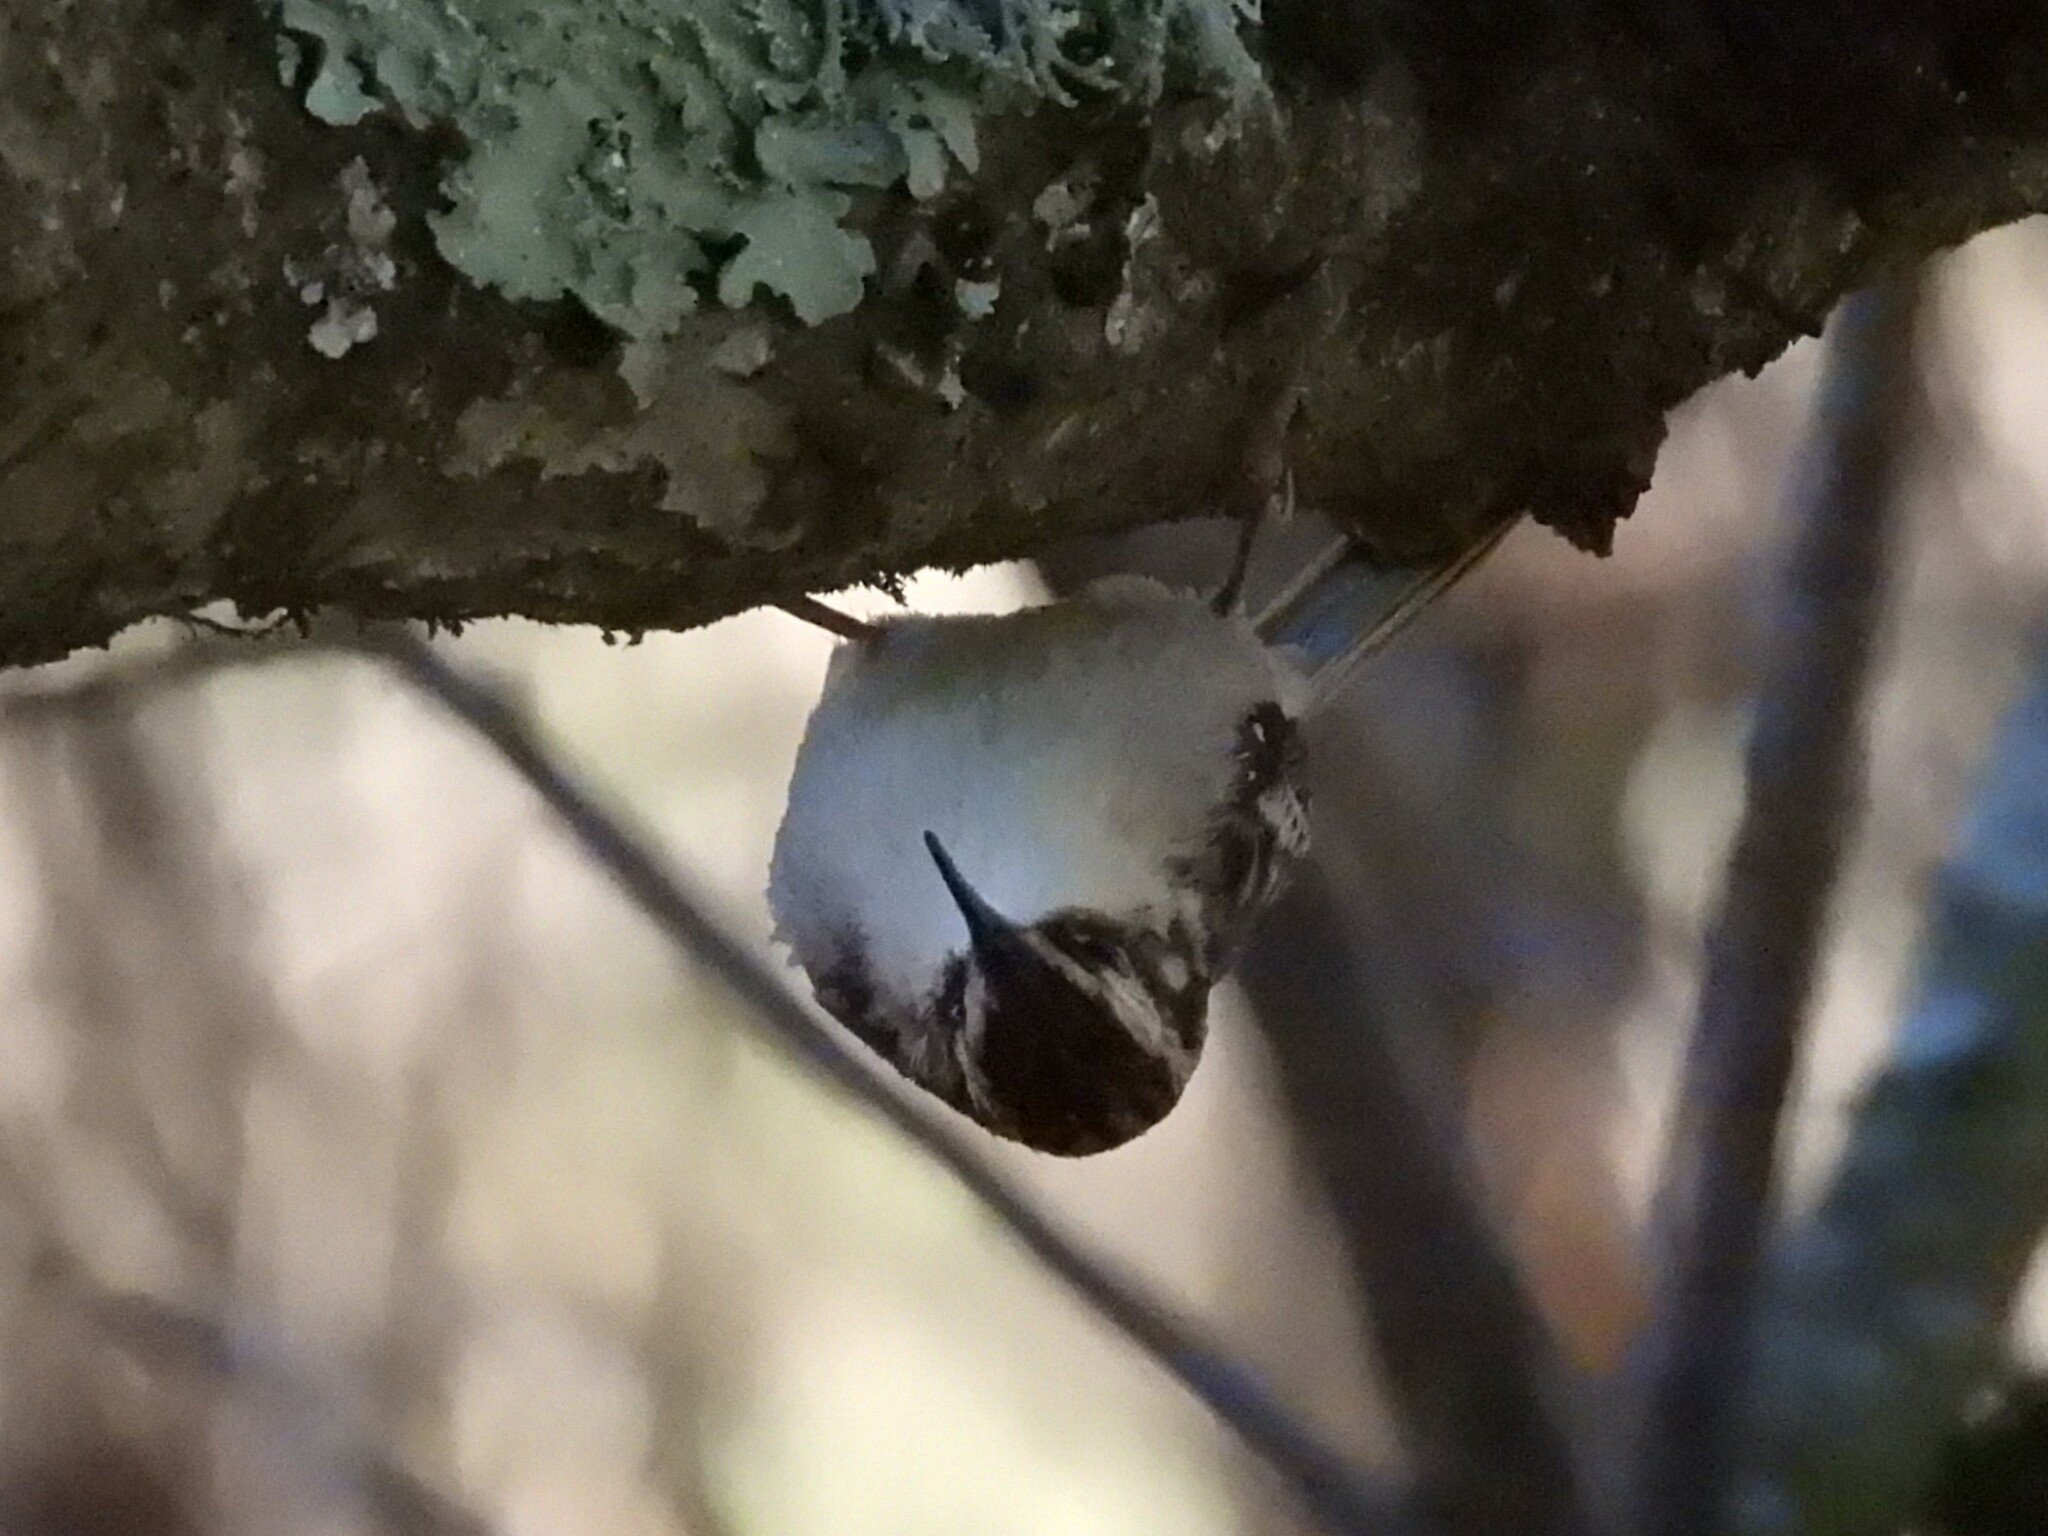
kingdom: Animalia
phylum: Chordata
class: Aves
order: Passeriformes
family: Certhiidae
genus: Certhia
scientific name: Certhia americana
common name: Brown creeper
